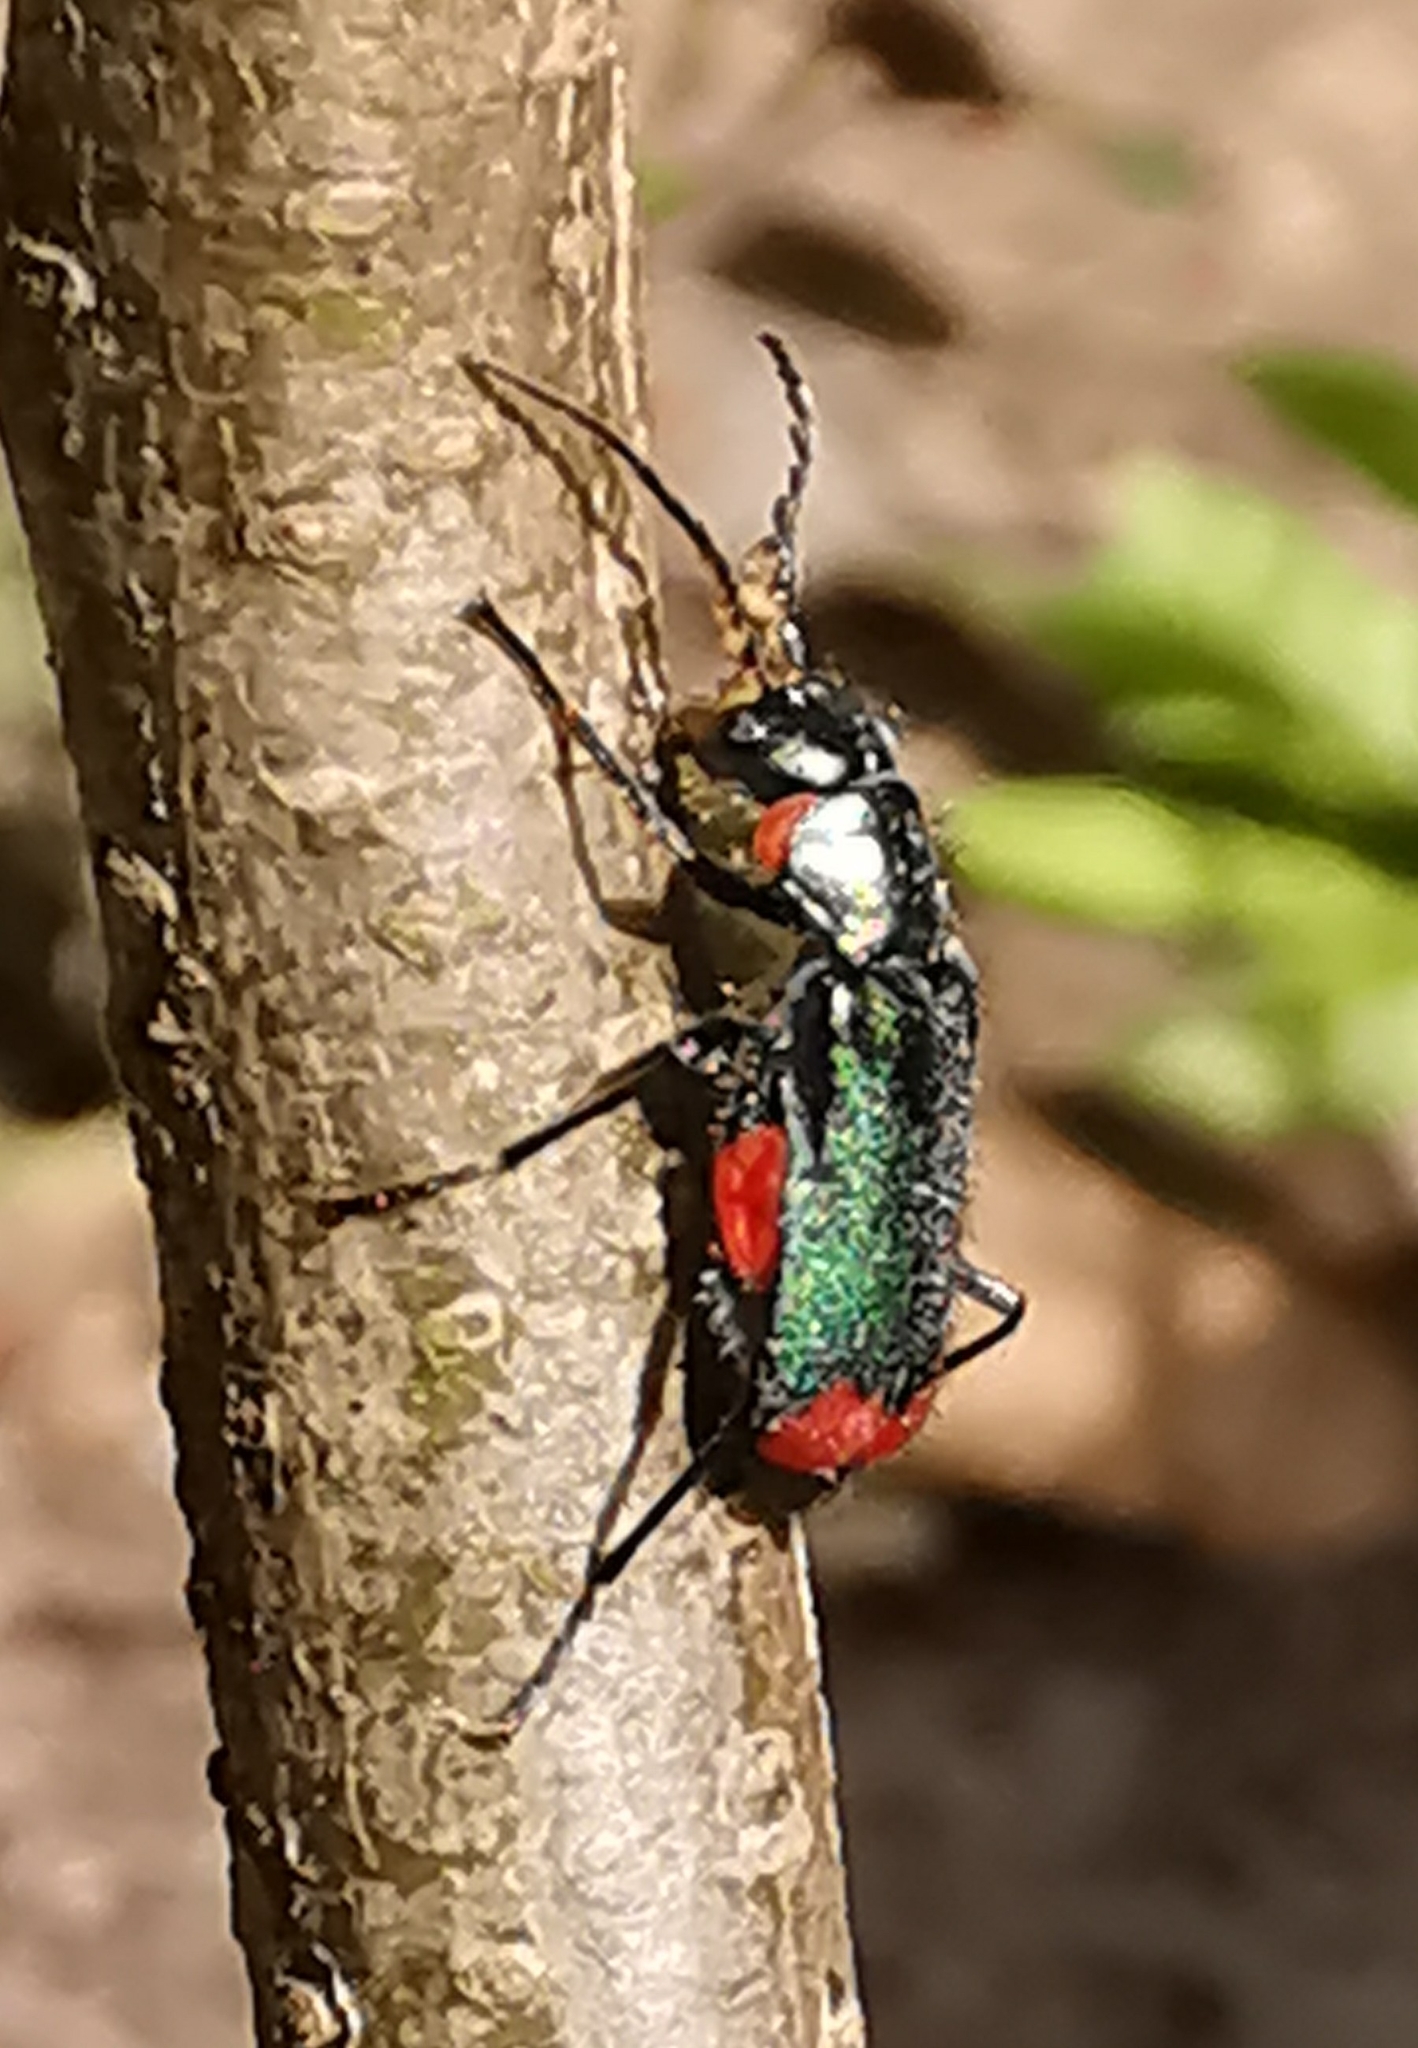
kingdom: Animalia
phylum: Arthropoda
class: Insecta
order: Coleoptera
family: Melyridae
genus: Malachius
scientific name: Malachius bipustulatus
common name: Malachite beetle
